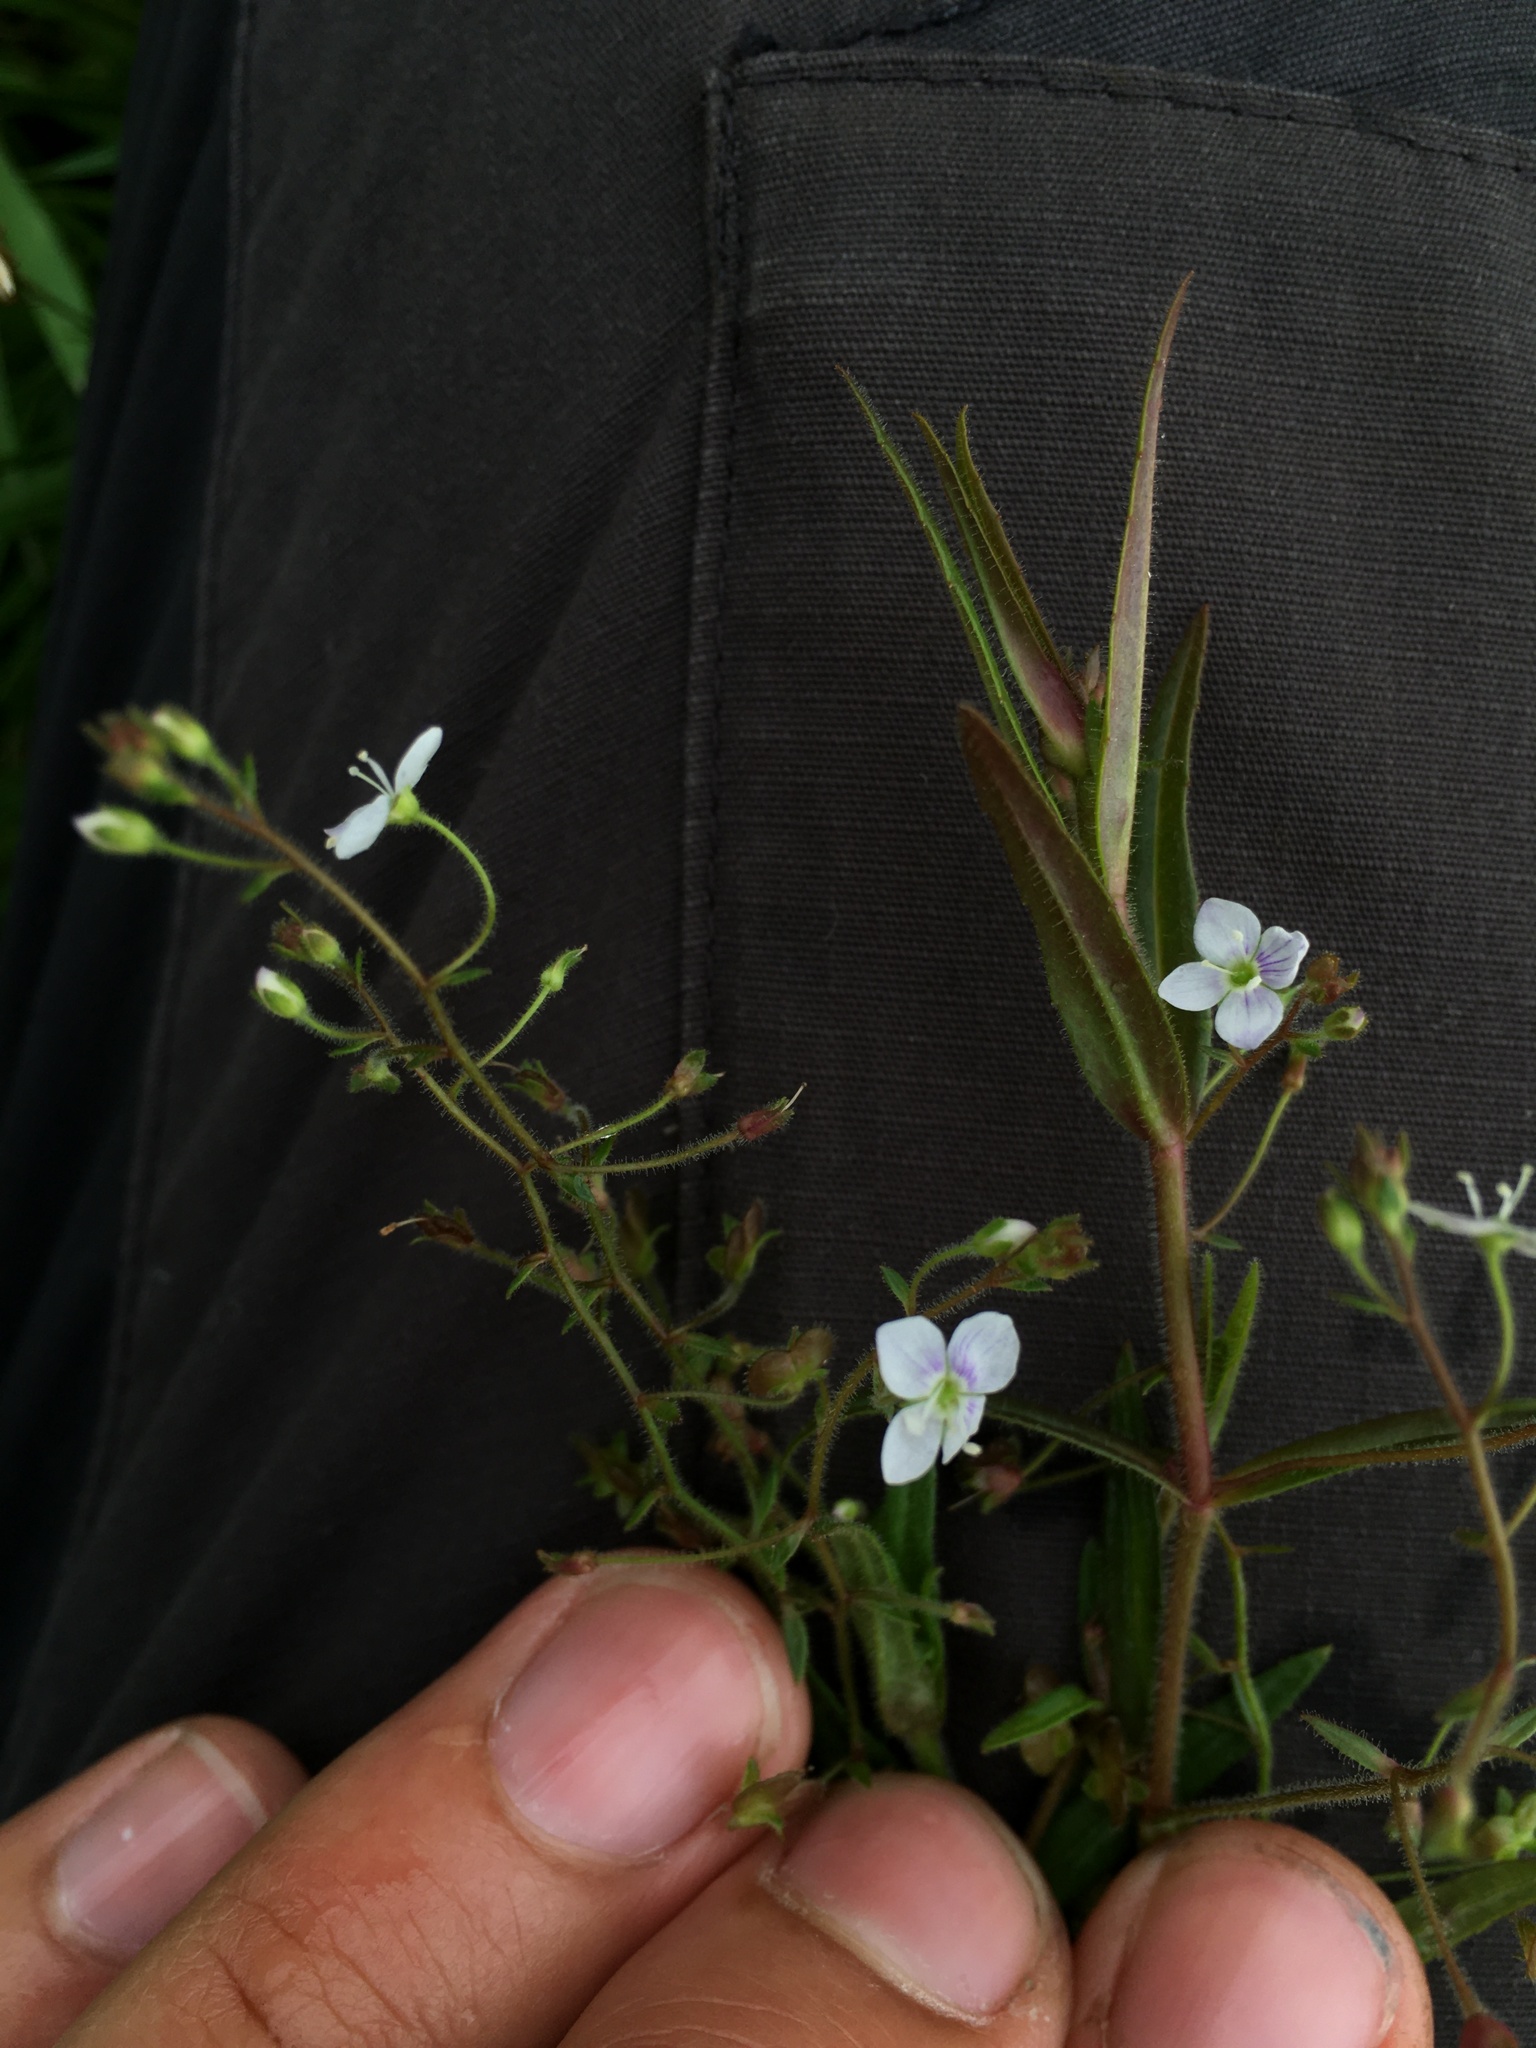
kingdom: Plantae
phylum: Tracheophyta
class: Magnoliopsida
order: Lamiales
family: Plantaginaceae
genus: Veronica
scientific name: Veronica scutellata
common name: Marsh speedwell
